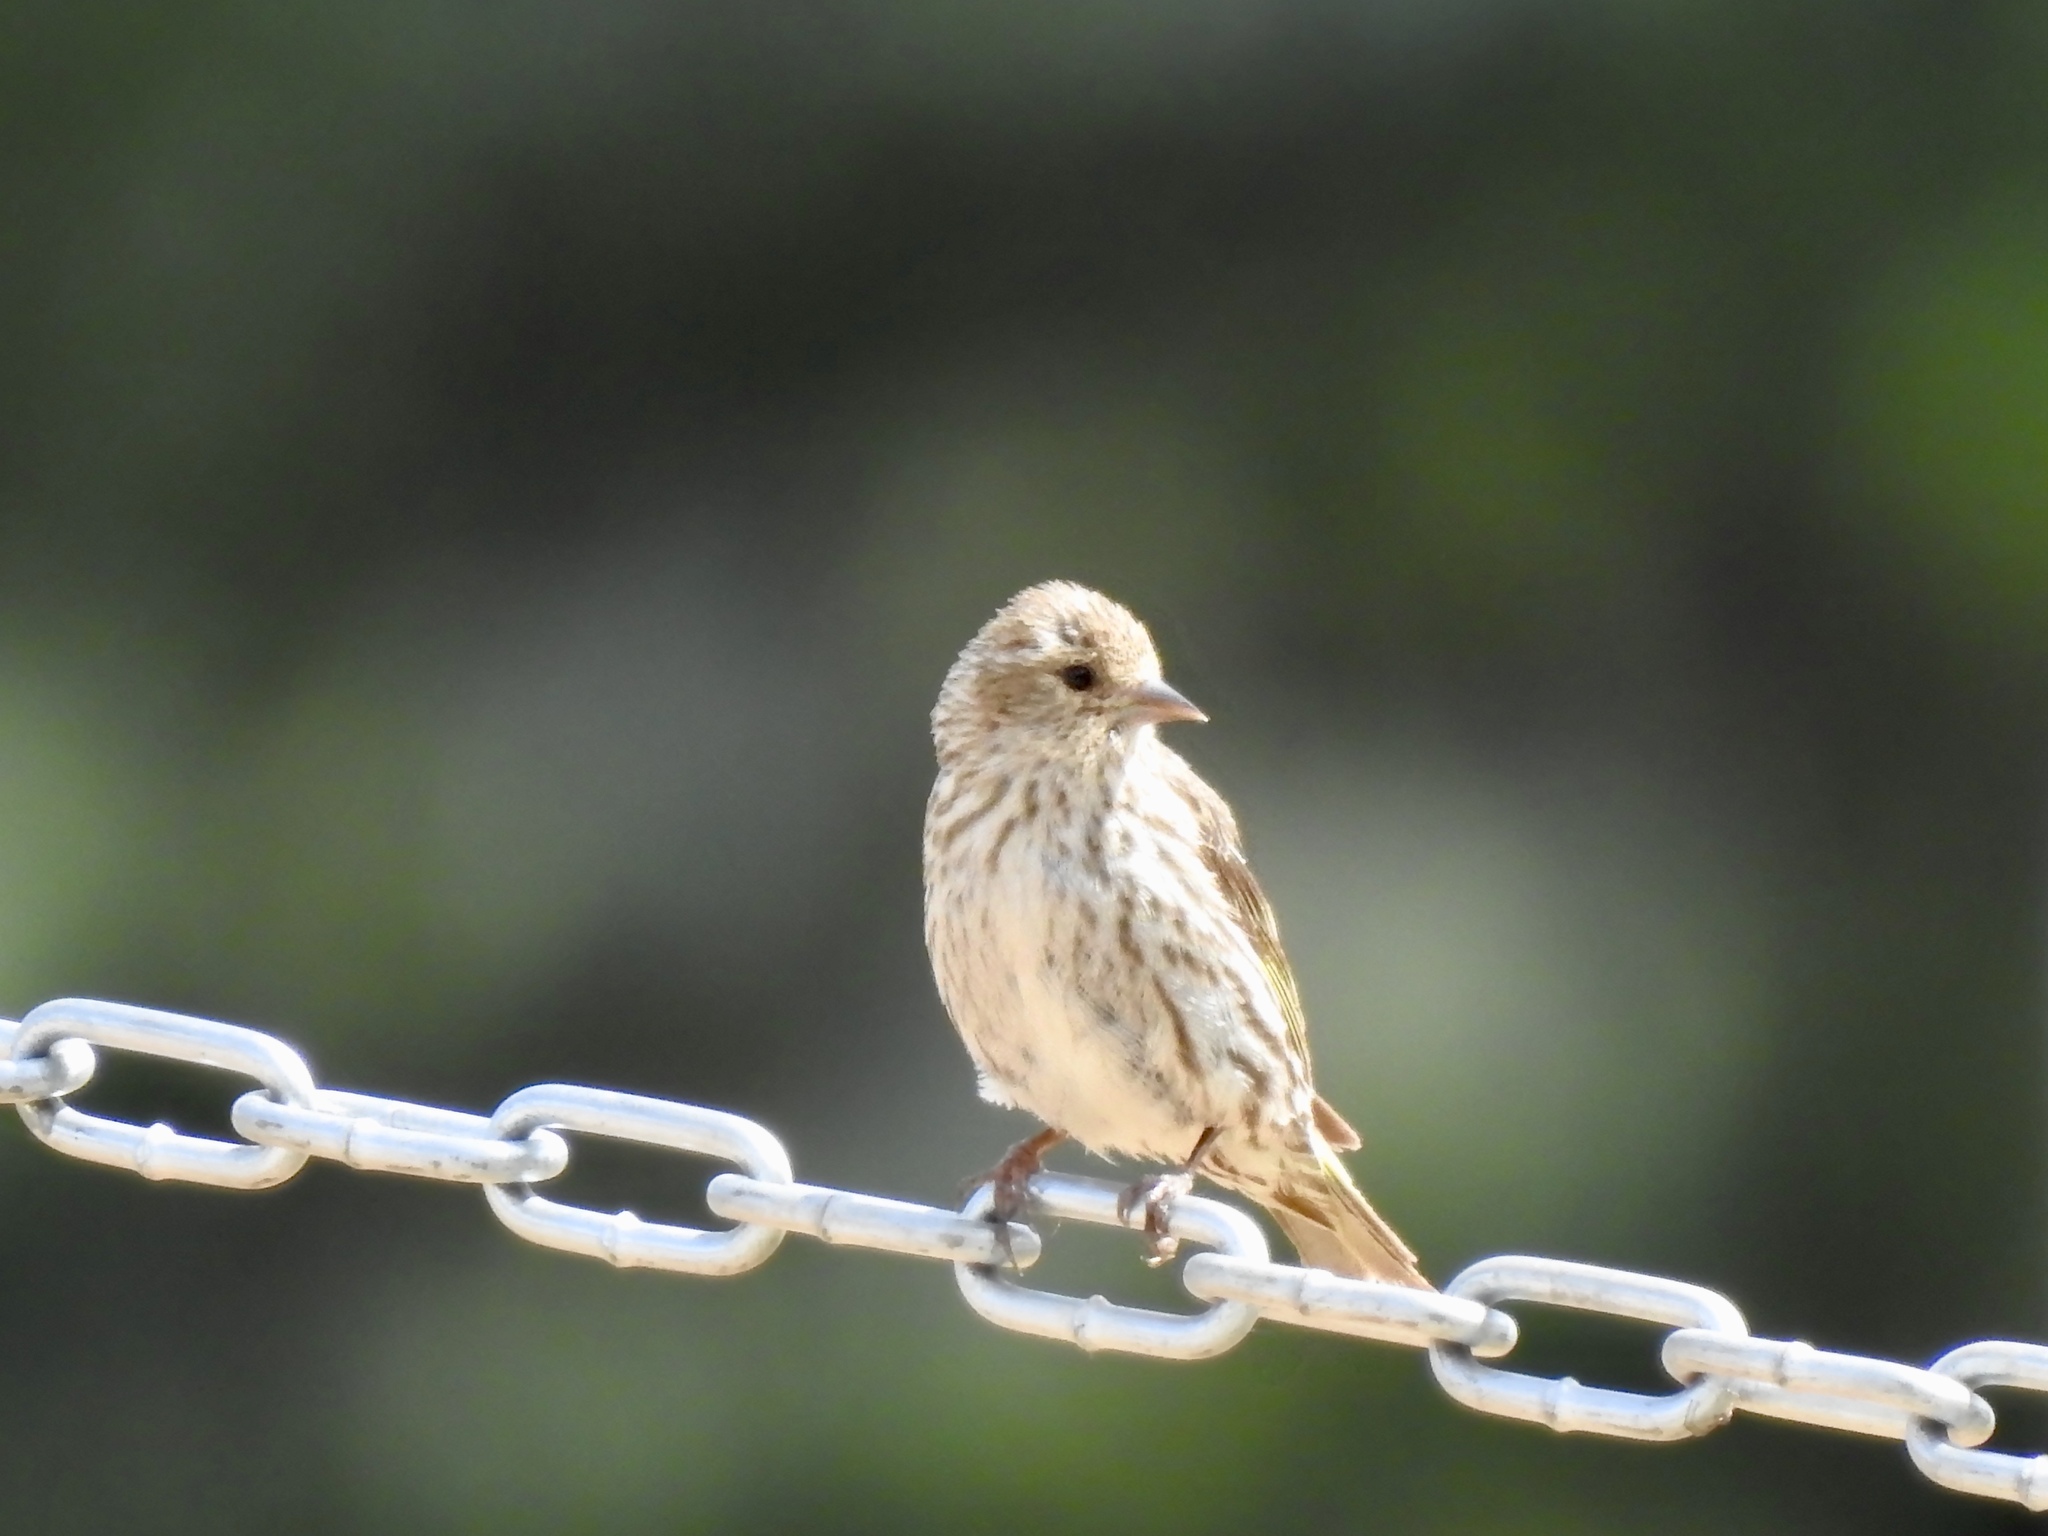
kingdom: Animalia
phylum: Chordata
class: Aves
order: Passeriformes
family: Fringillidae
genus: Spinus
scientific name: Spinus pinus
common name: Pine siskin
